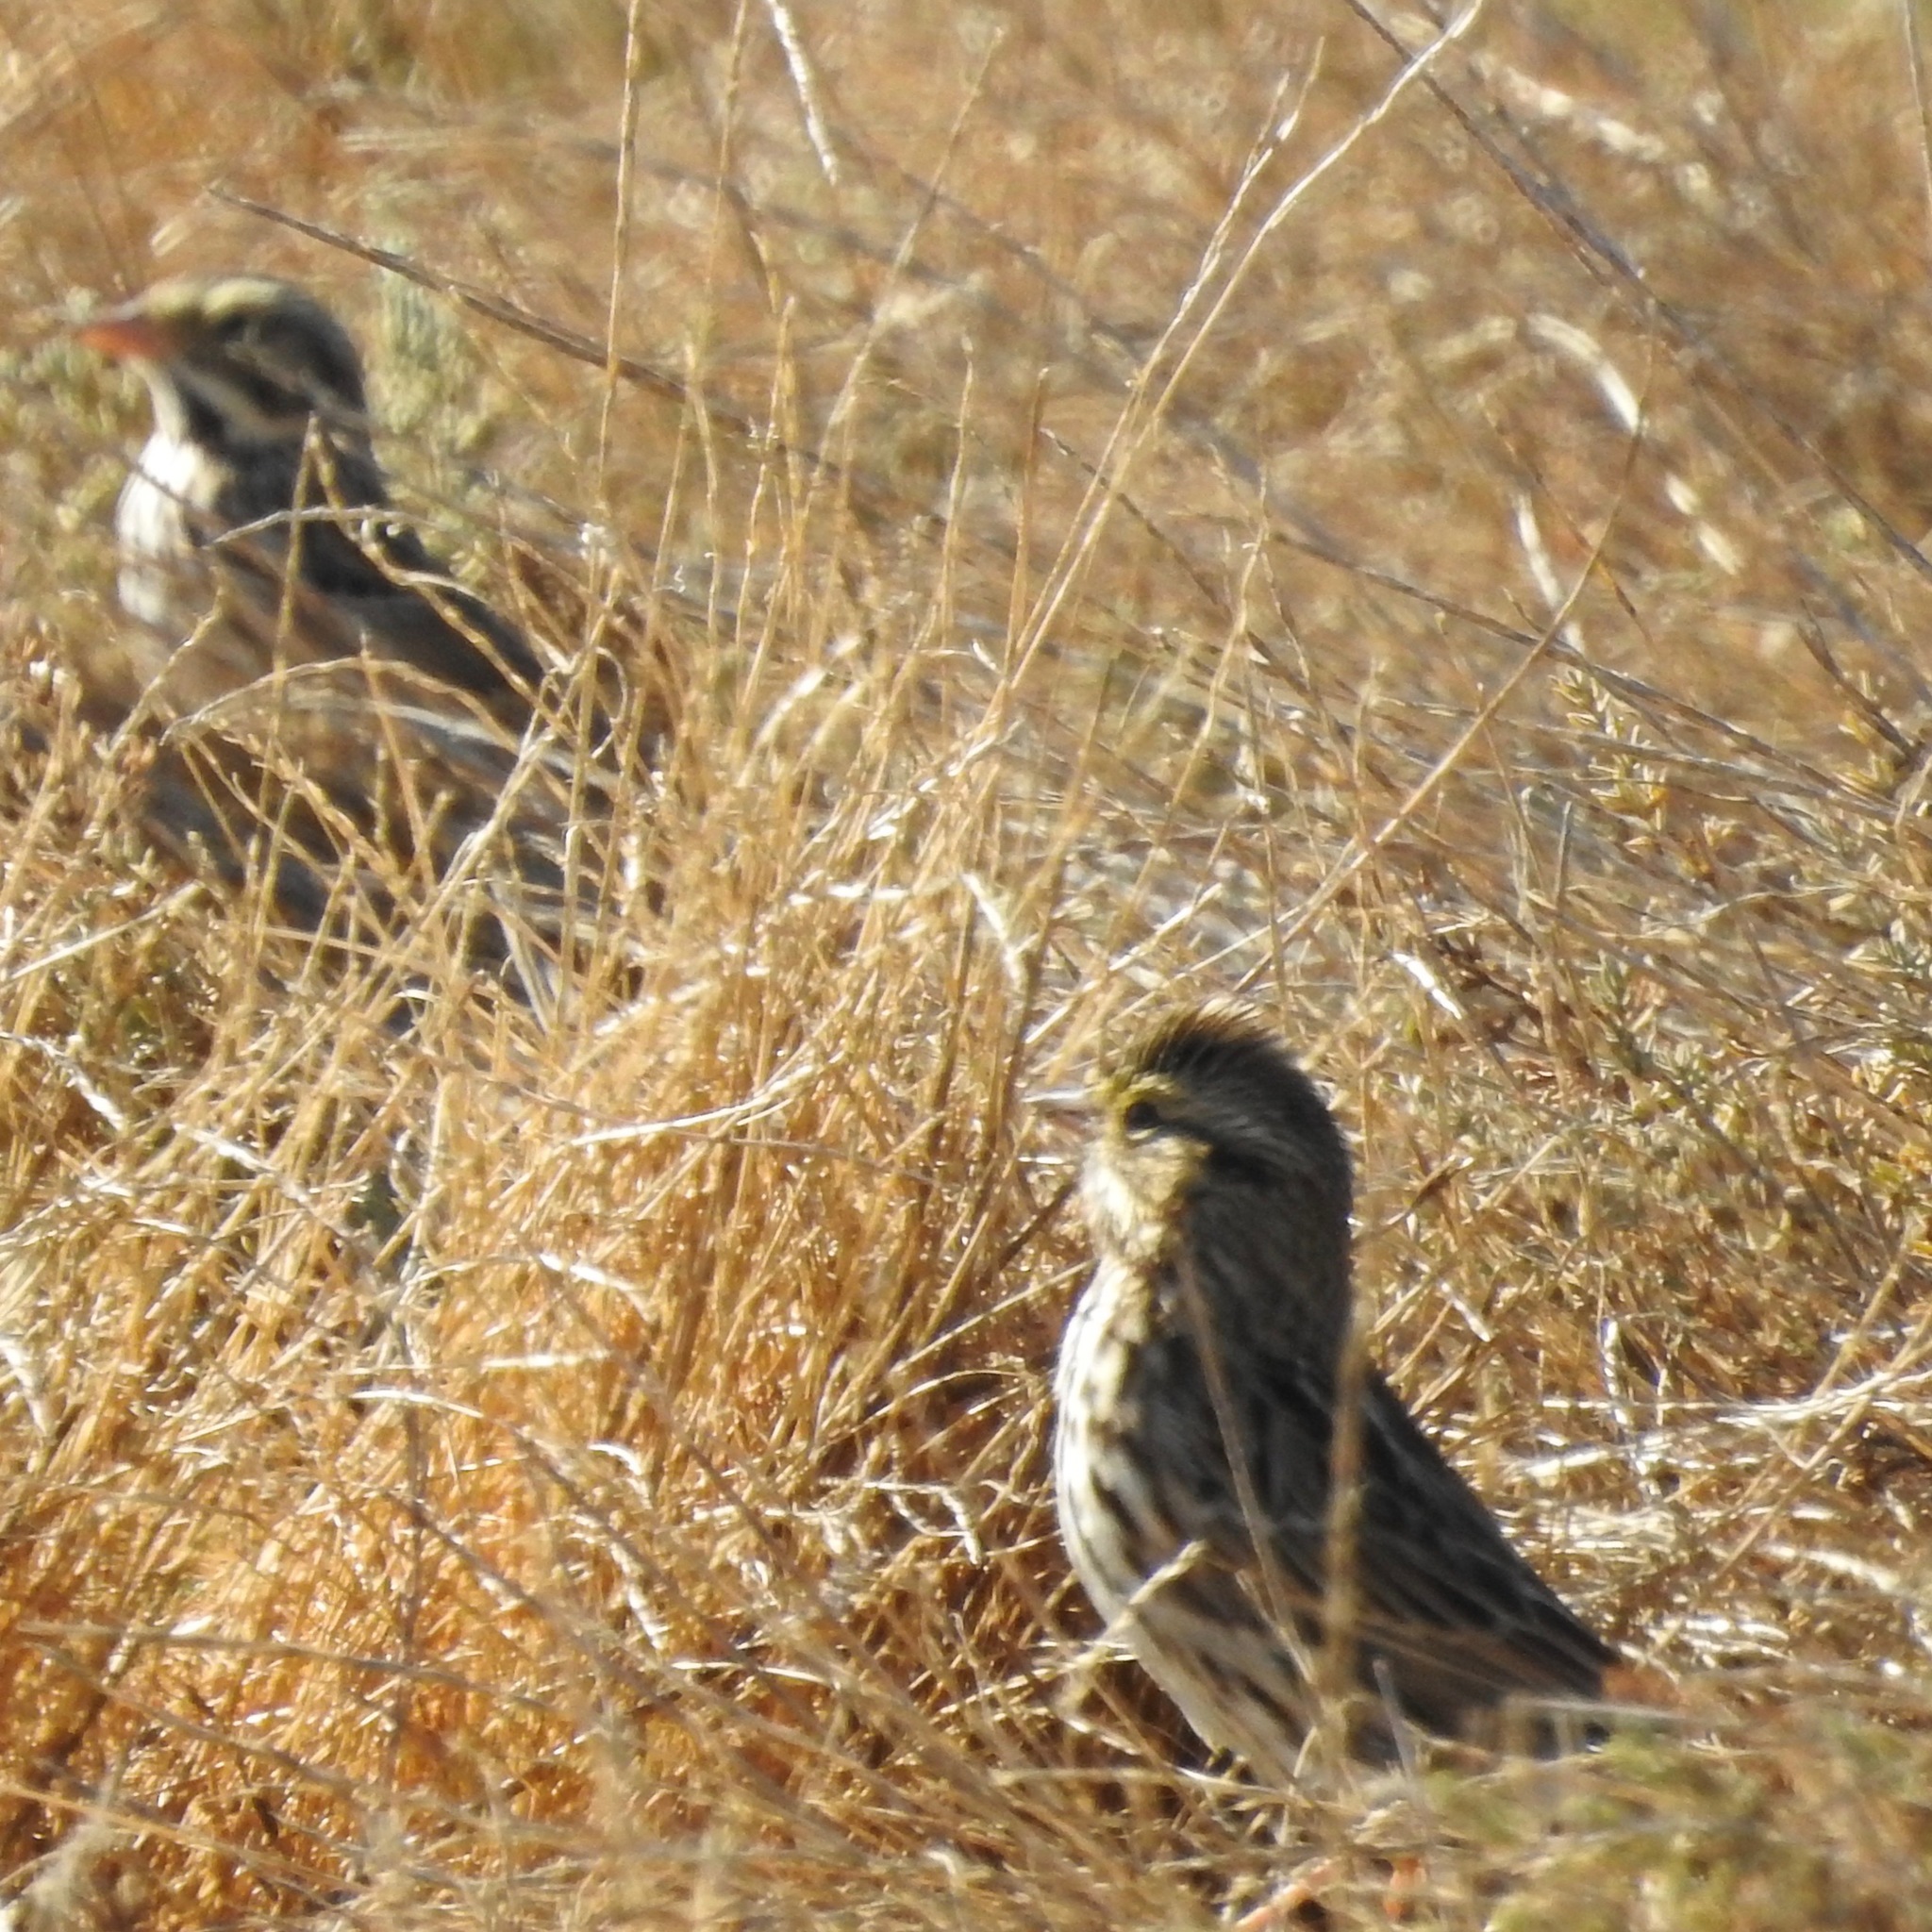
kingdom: Animalia
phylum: Chordata
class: Aves
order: Passeriformes
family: Passerellidae
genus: Passerculus
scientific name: Passerculus sandwichensis
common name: Savannah sparrow
